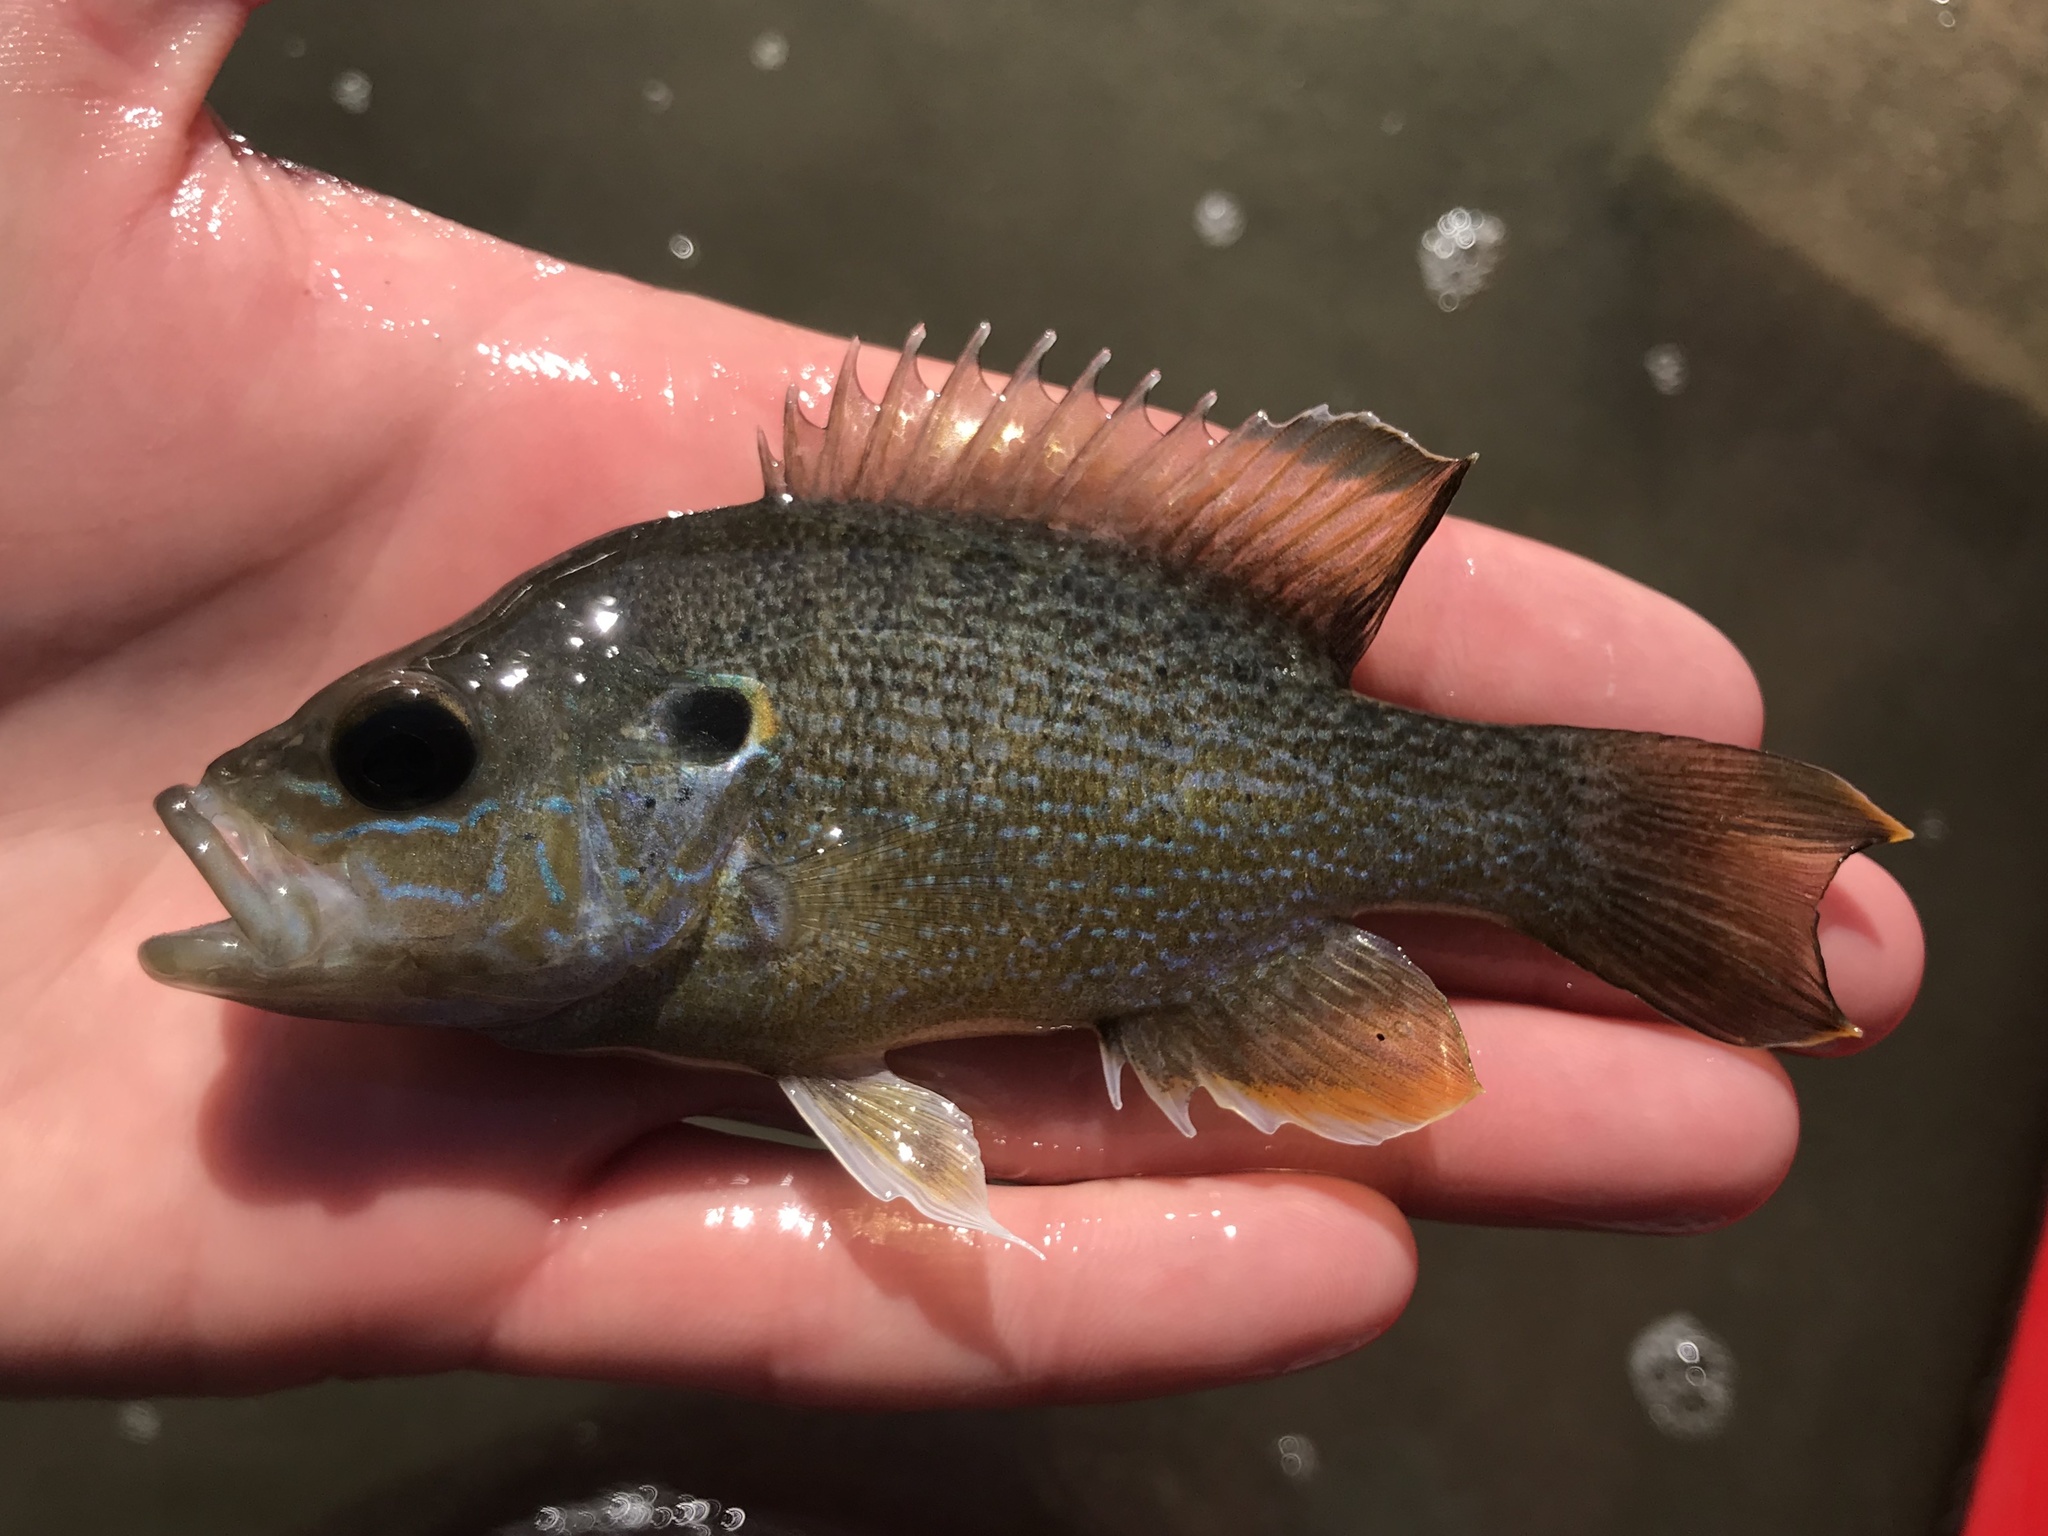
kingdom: Animalia
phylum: Chordata
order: Perciformes
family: Centrarchidae
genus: Lepomis
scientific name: Lepomis cyanellus
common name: Green sunfish
